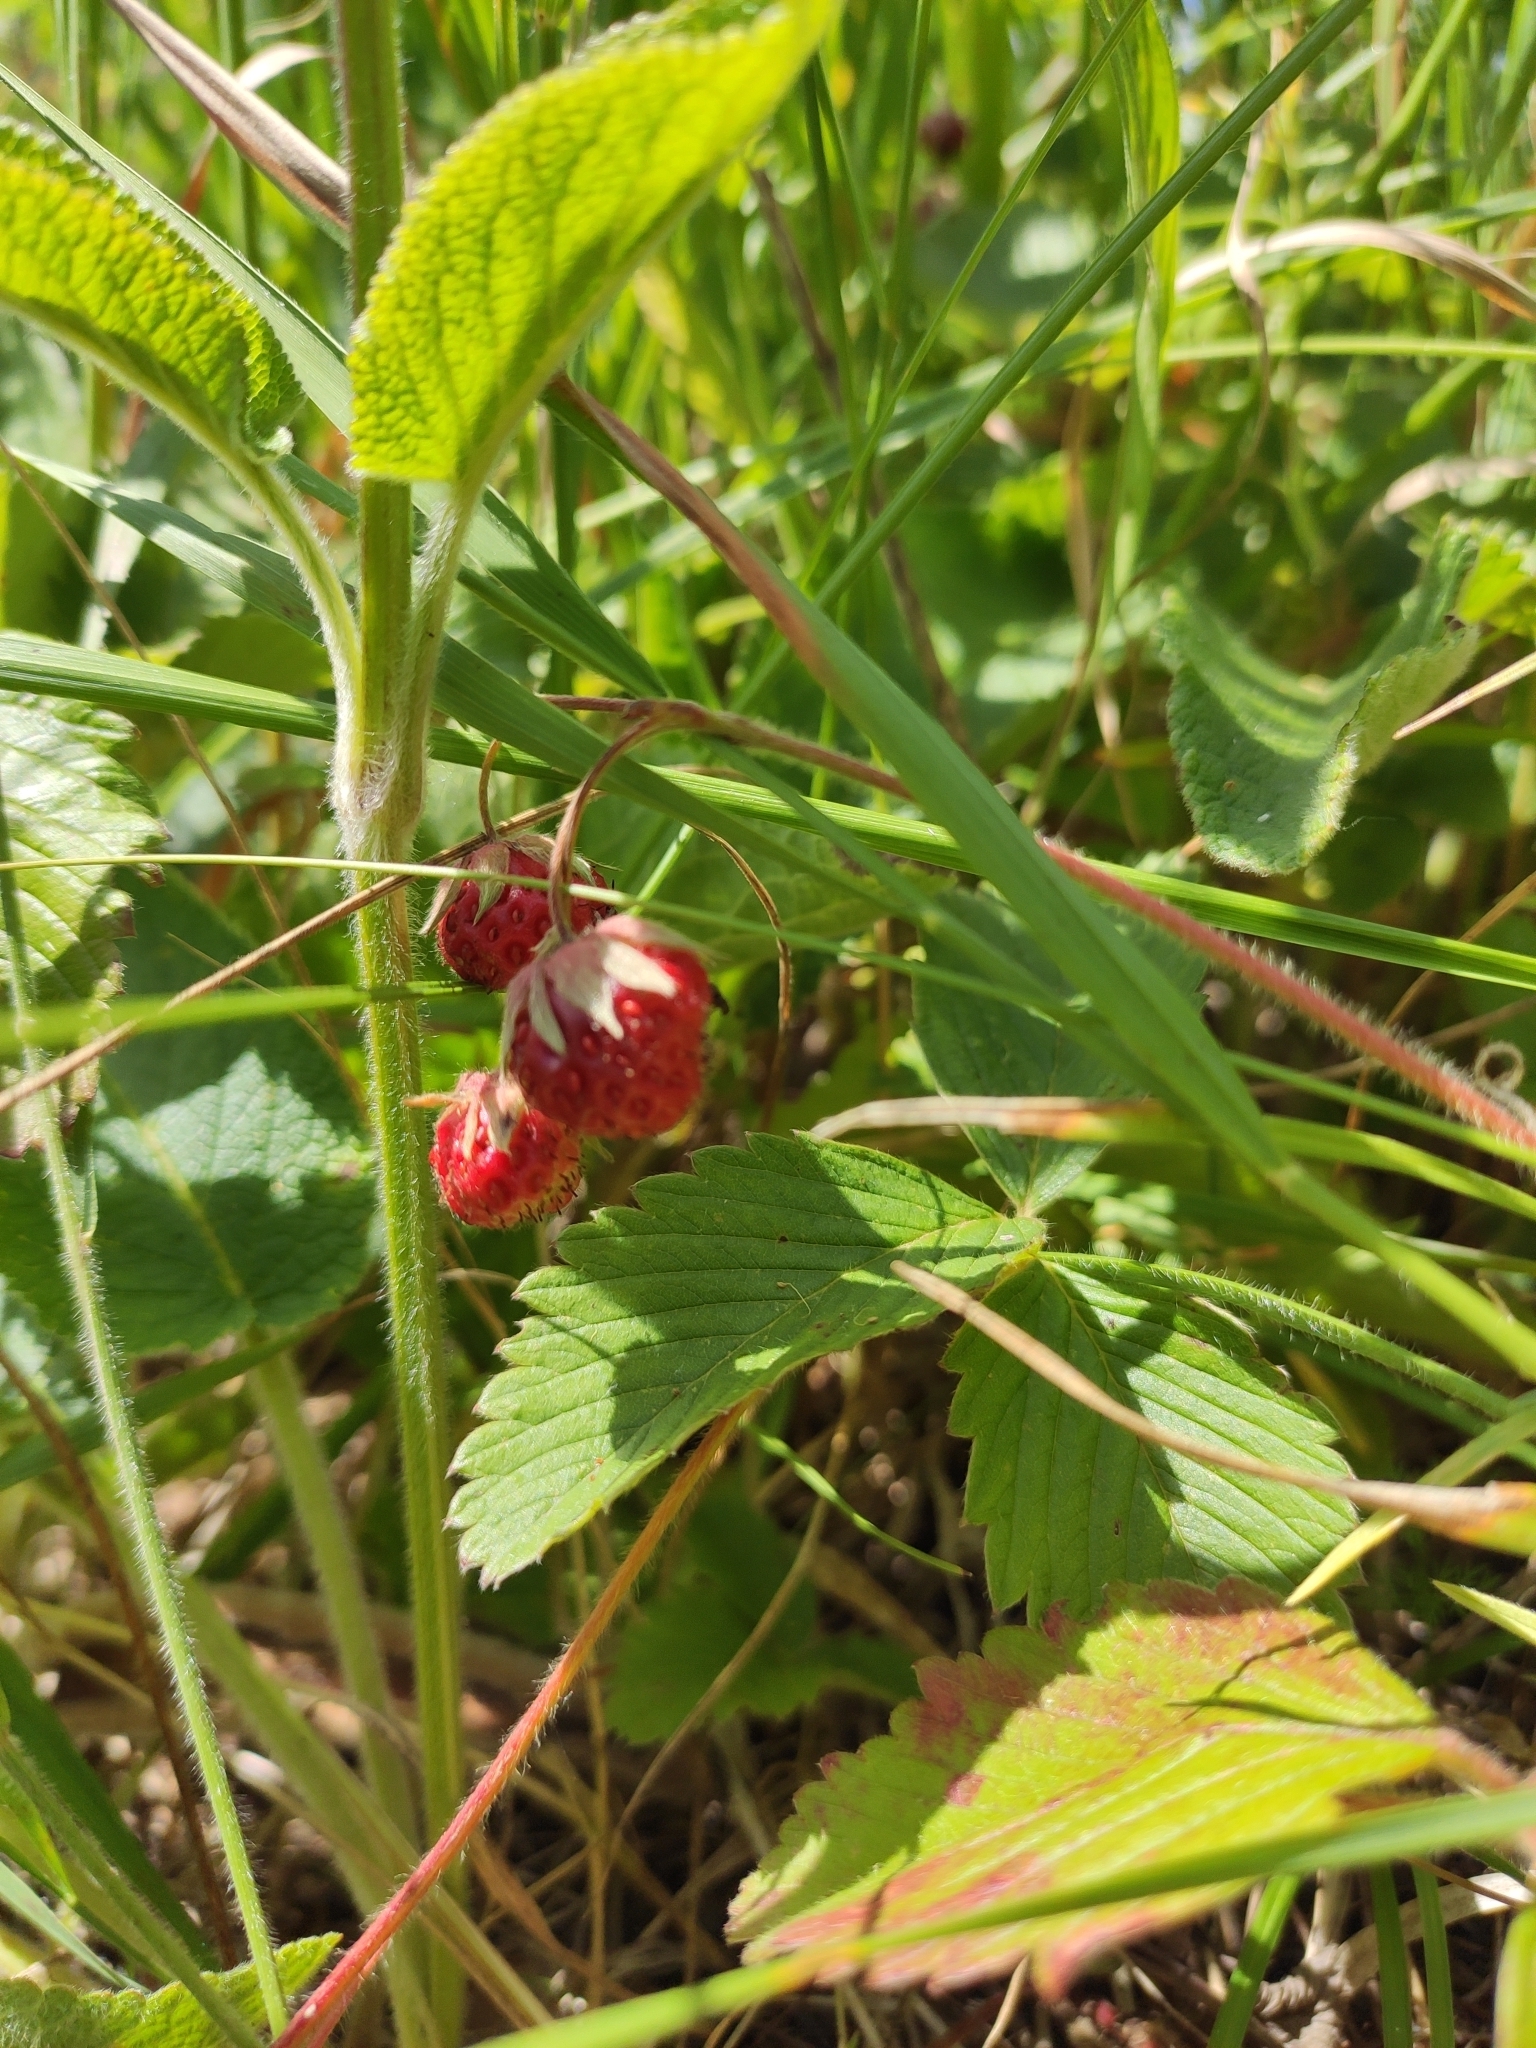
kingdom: Plantae
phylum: Tracheophyta
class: Magnoliopsida
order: Rosales
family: Rosaceae
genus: Fragaria
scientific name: Fragaria viridis
